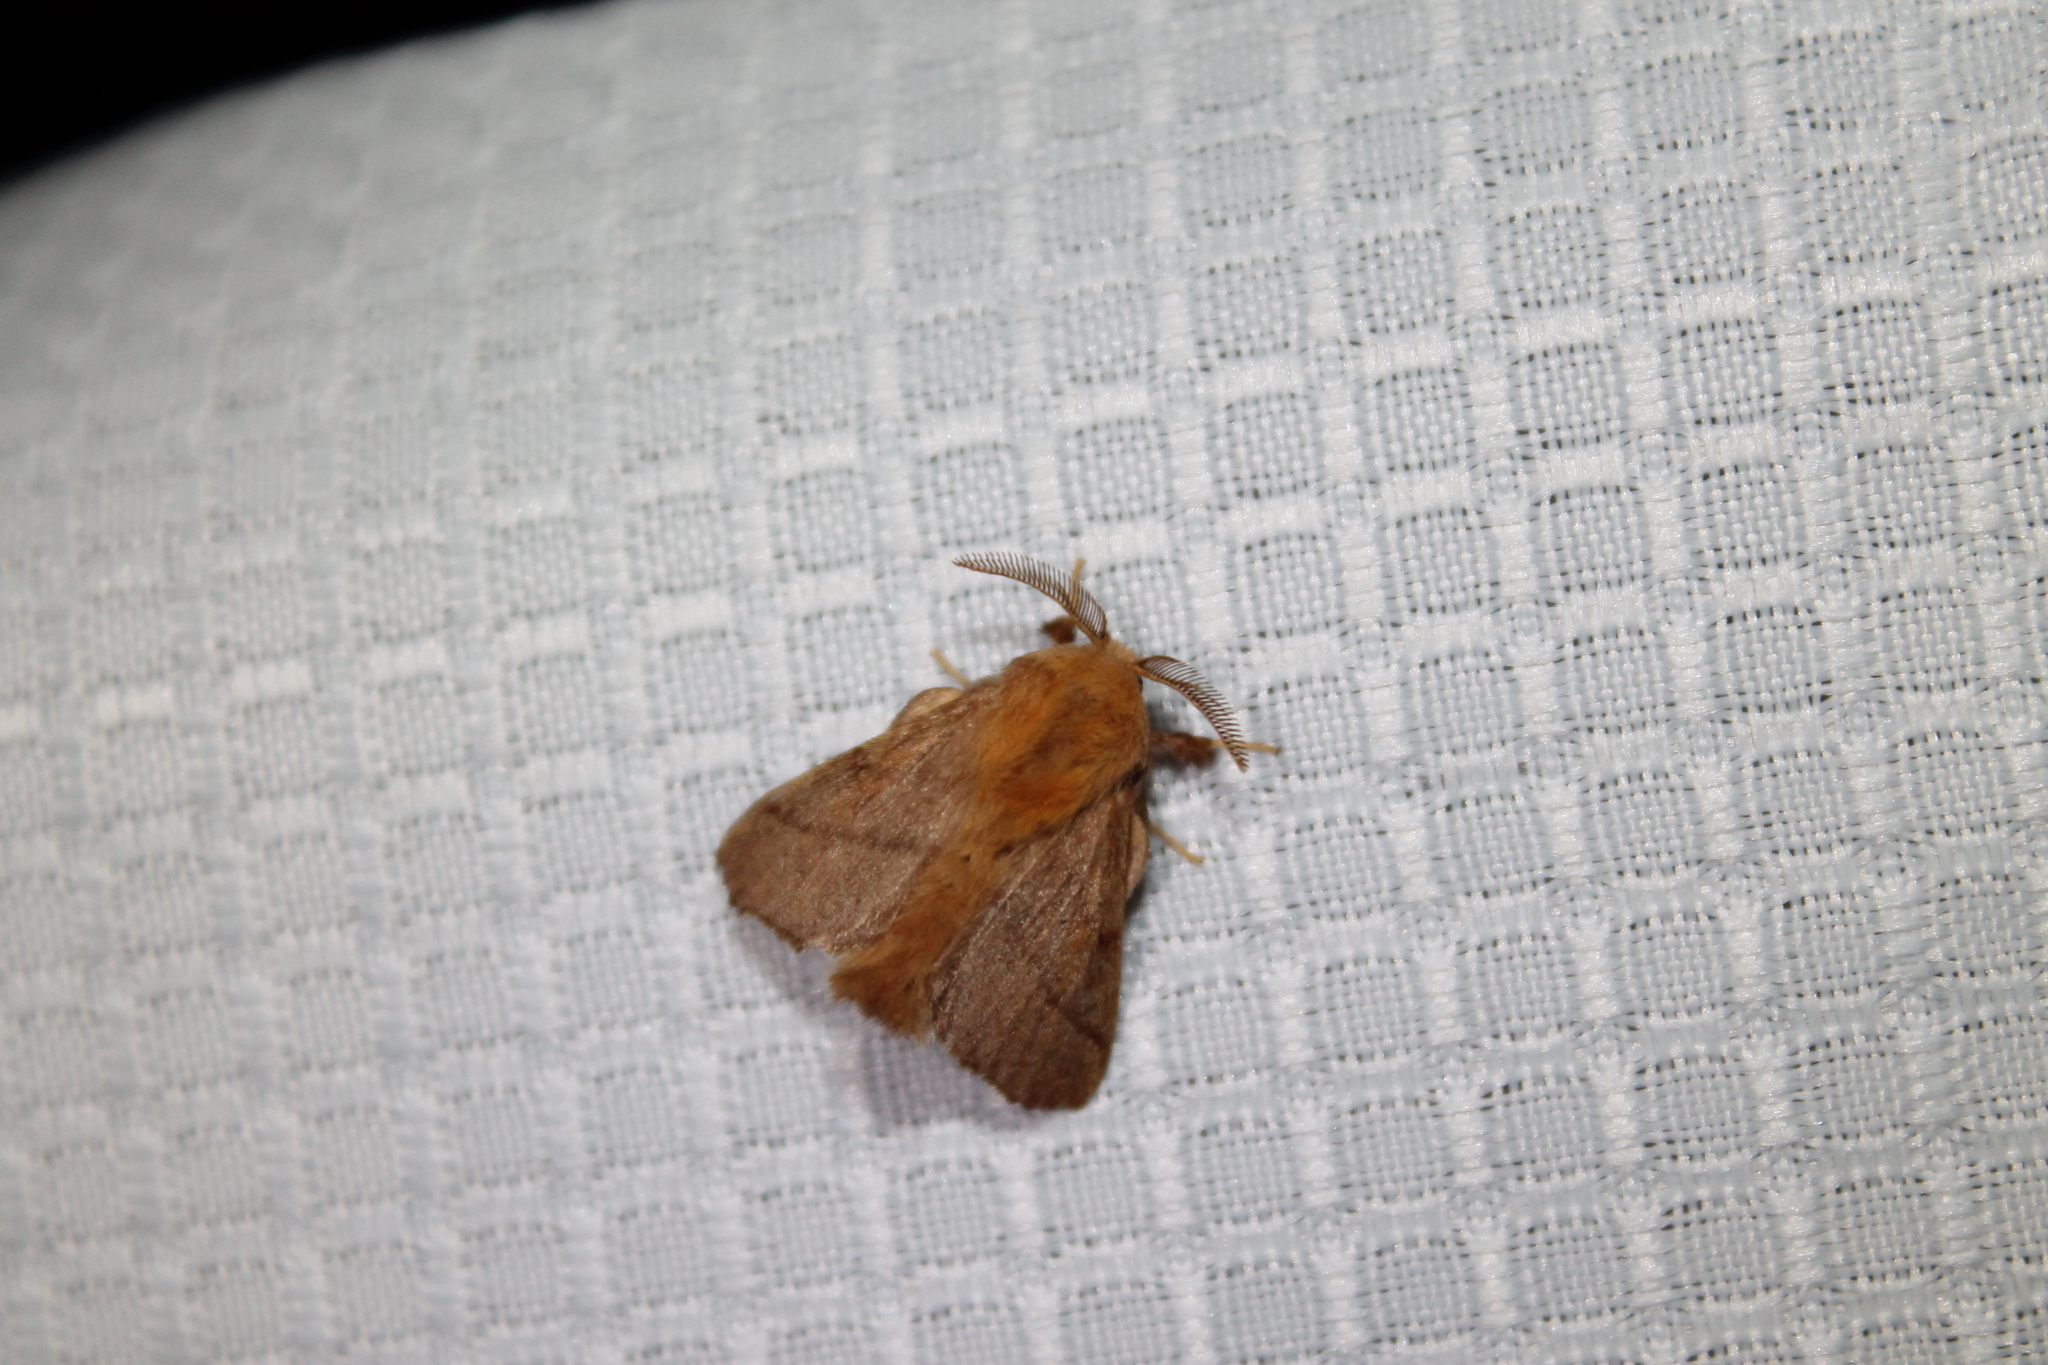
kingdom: Animalia
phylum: Arthropoda
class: Insecta
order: Lepidoptera
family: Lasiocampidae
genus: Malacosoma
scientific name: Malacosoma disstria
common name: Forest tent caterpillar
